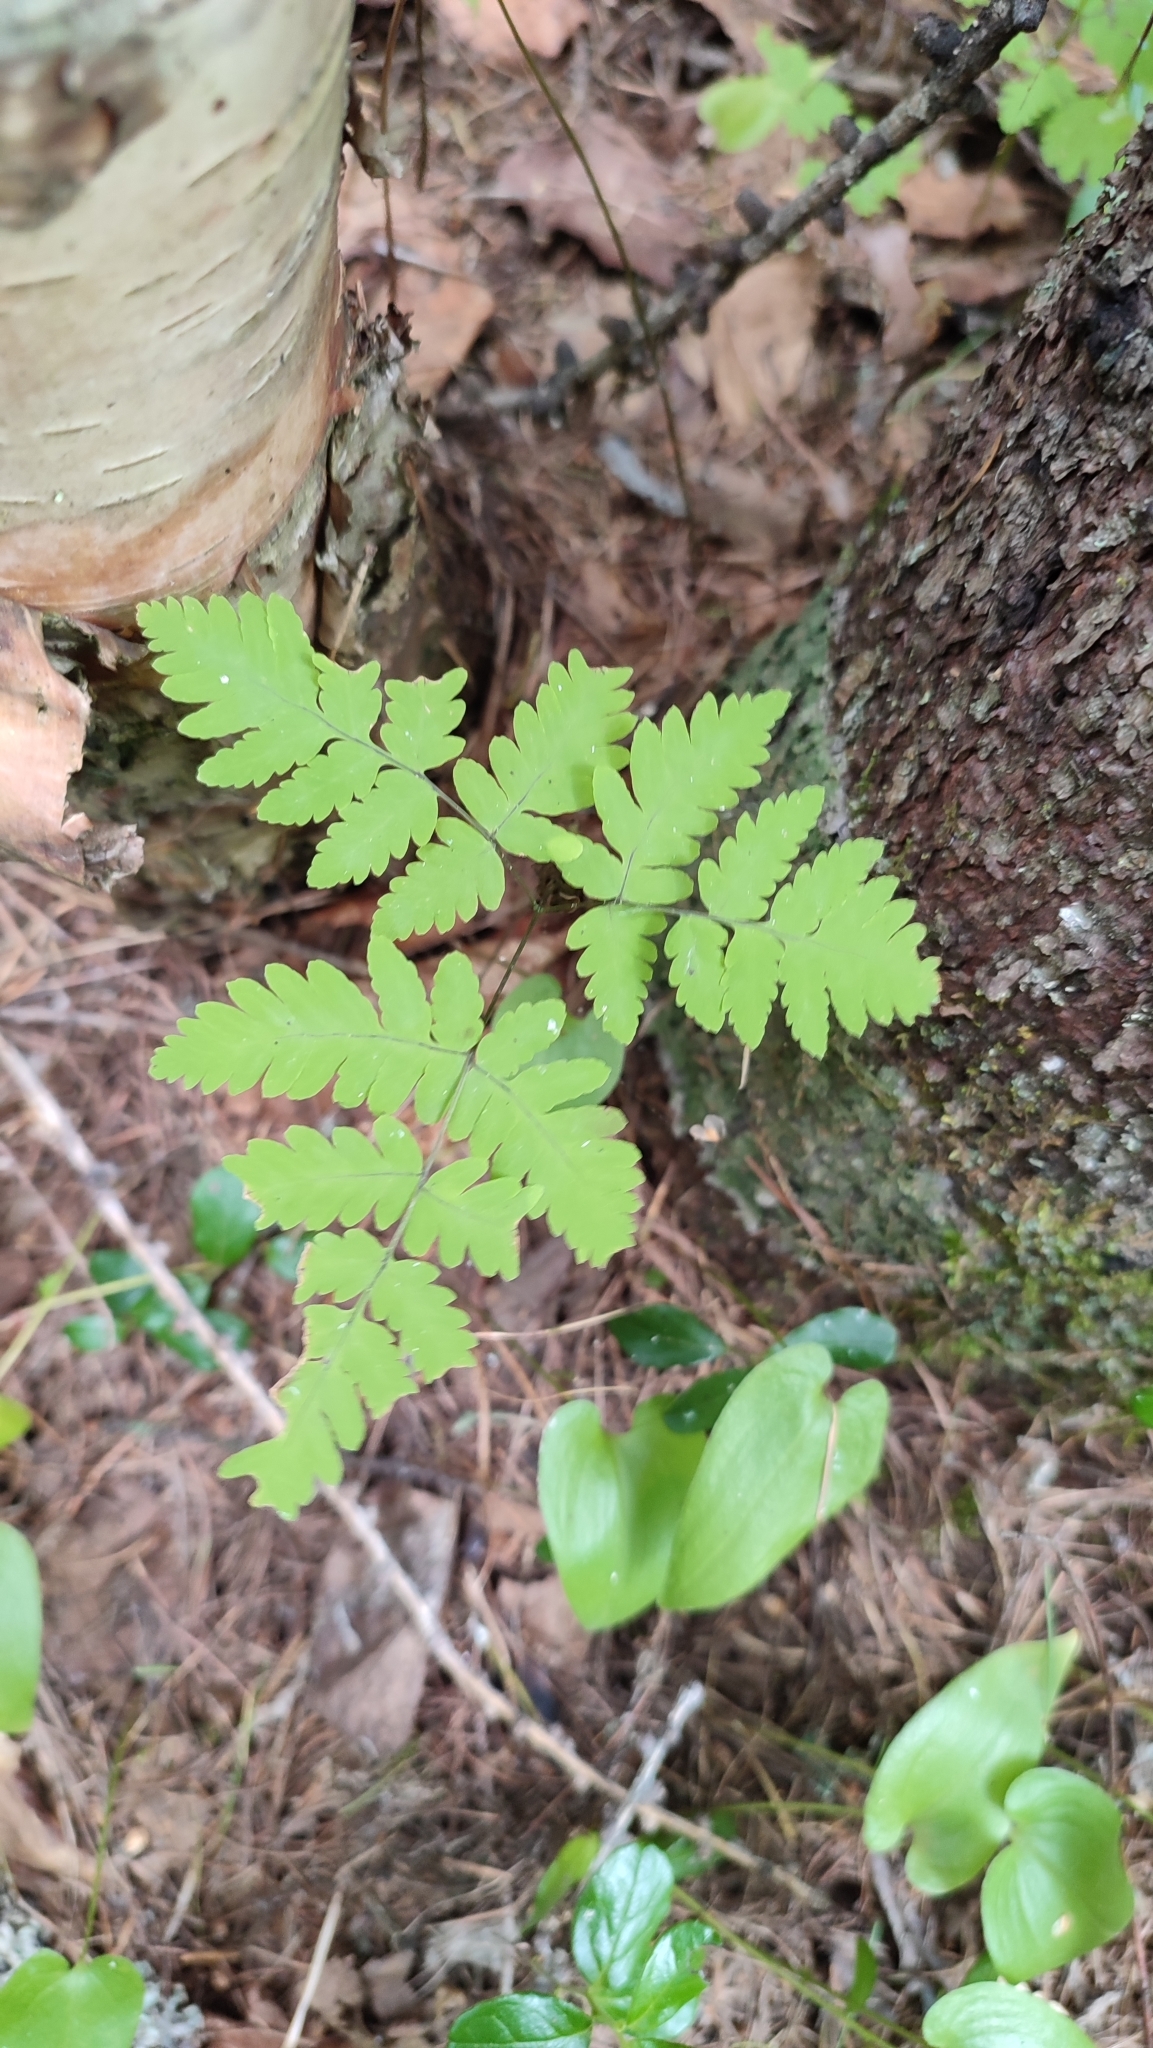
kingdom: Plantae
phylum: Tracheophyta
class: Polypodiopsida
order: Polypodiales
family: Cystopteridaceae
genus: Gymnocarpium
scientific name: Gymnocarpium dryopteris
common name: Oak fern
